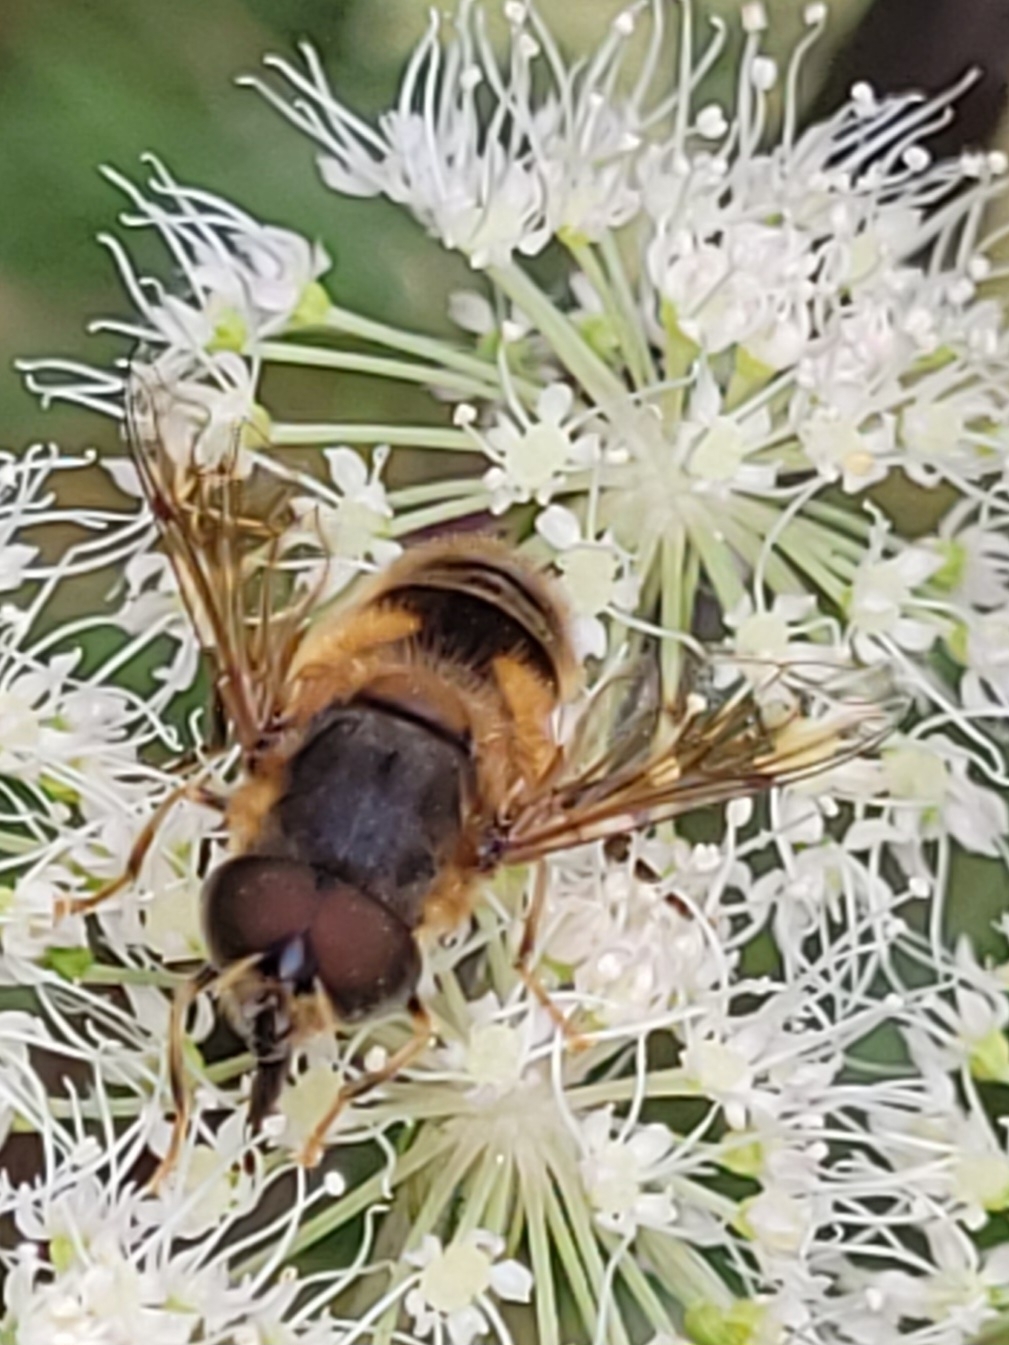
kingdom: Animalia
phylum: Arthropoda
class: Insecta
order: Diptera
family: Syrphidae
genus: Eristalis
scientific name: Eristalis pertinax
